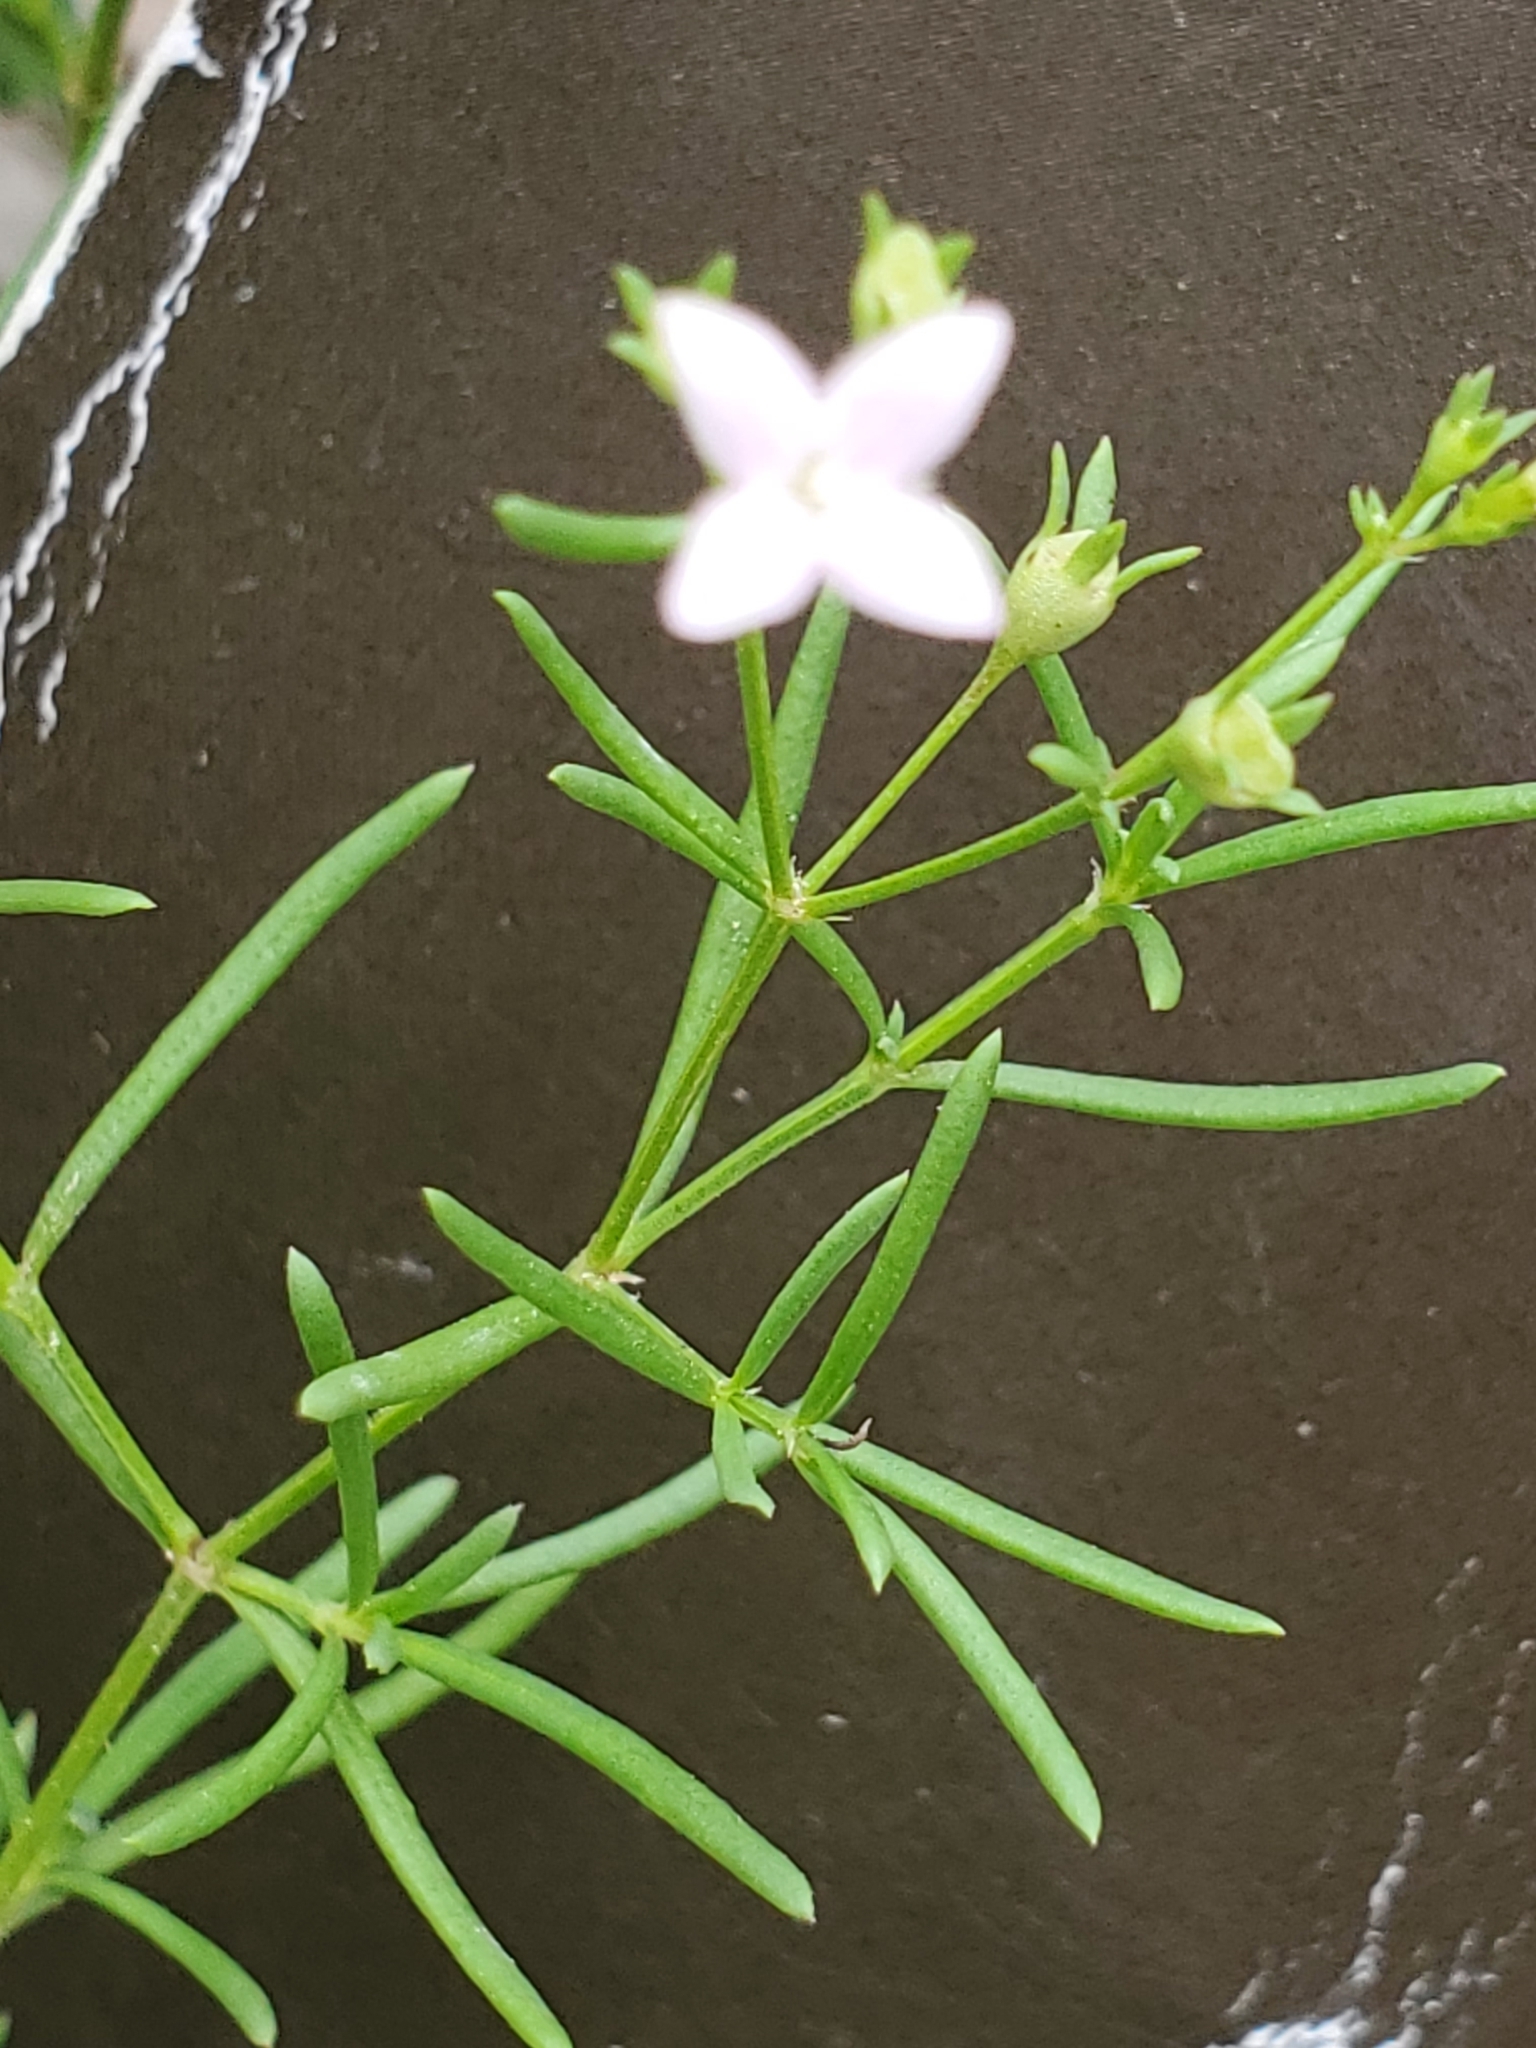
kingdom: Plantae
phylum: Tracheophyta
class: Magnoliopsida
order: Gentianales
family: Rubiaceae
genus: Stenaria
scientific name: Stenaria nigricans
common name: Diamondflowers
